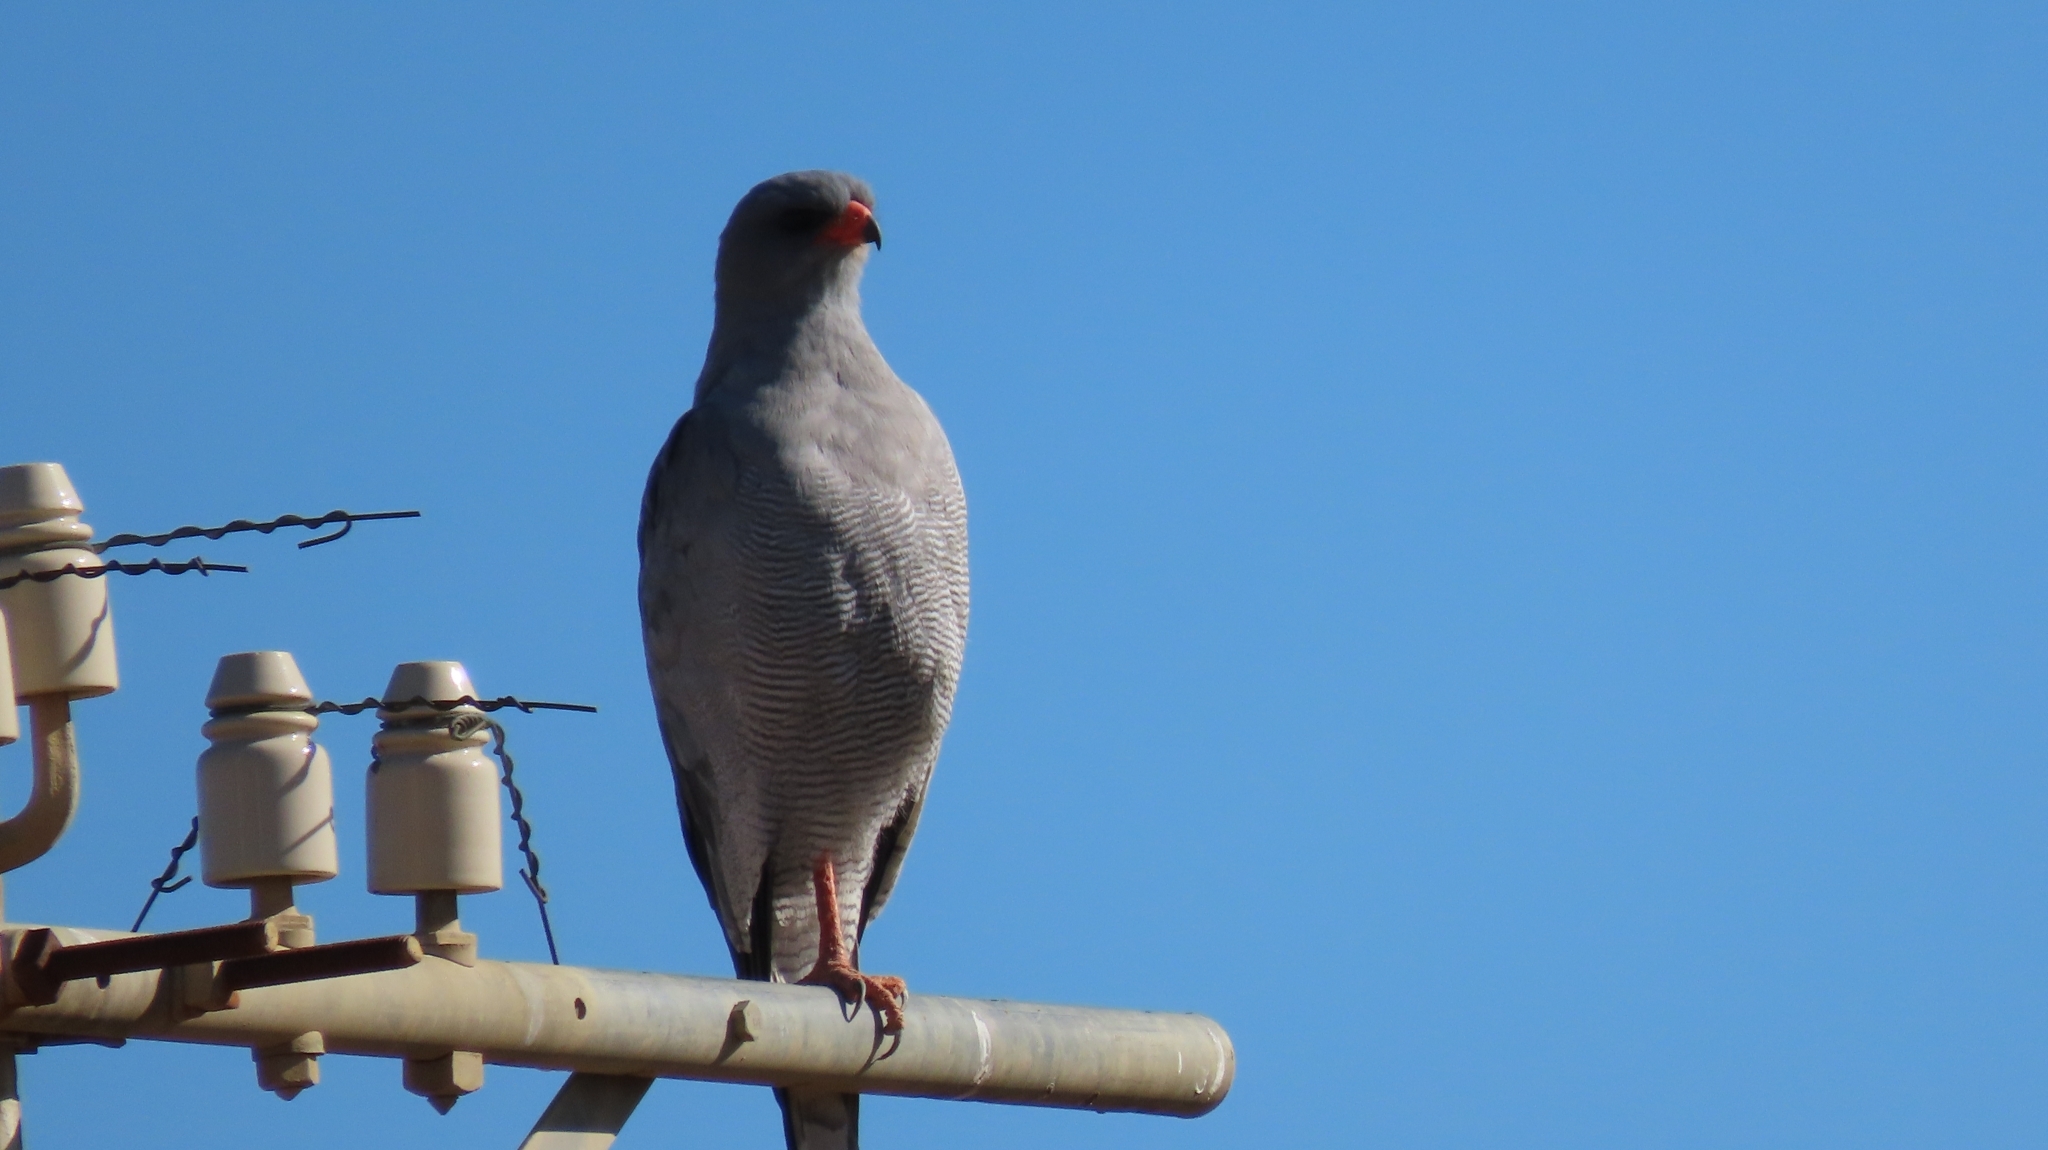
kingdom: Animalia
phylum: Chordata
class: Aves
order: Accipitriformes
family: Accipitridae
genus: Melierax
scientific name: Melierax canorus
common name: Pale chanting-goshawk
